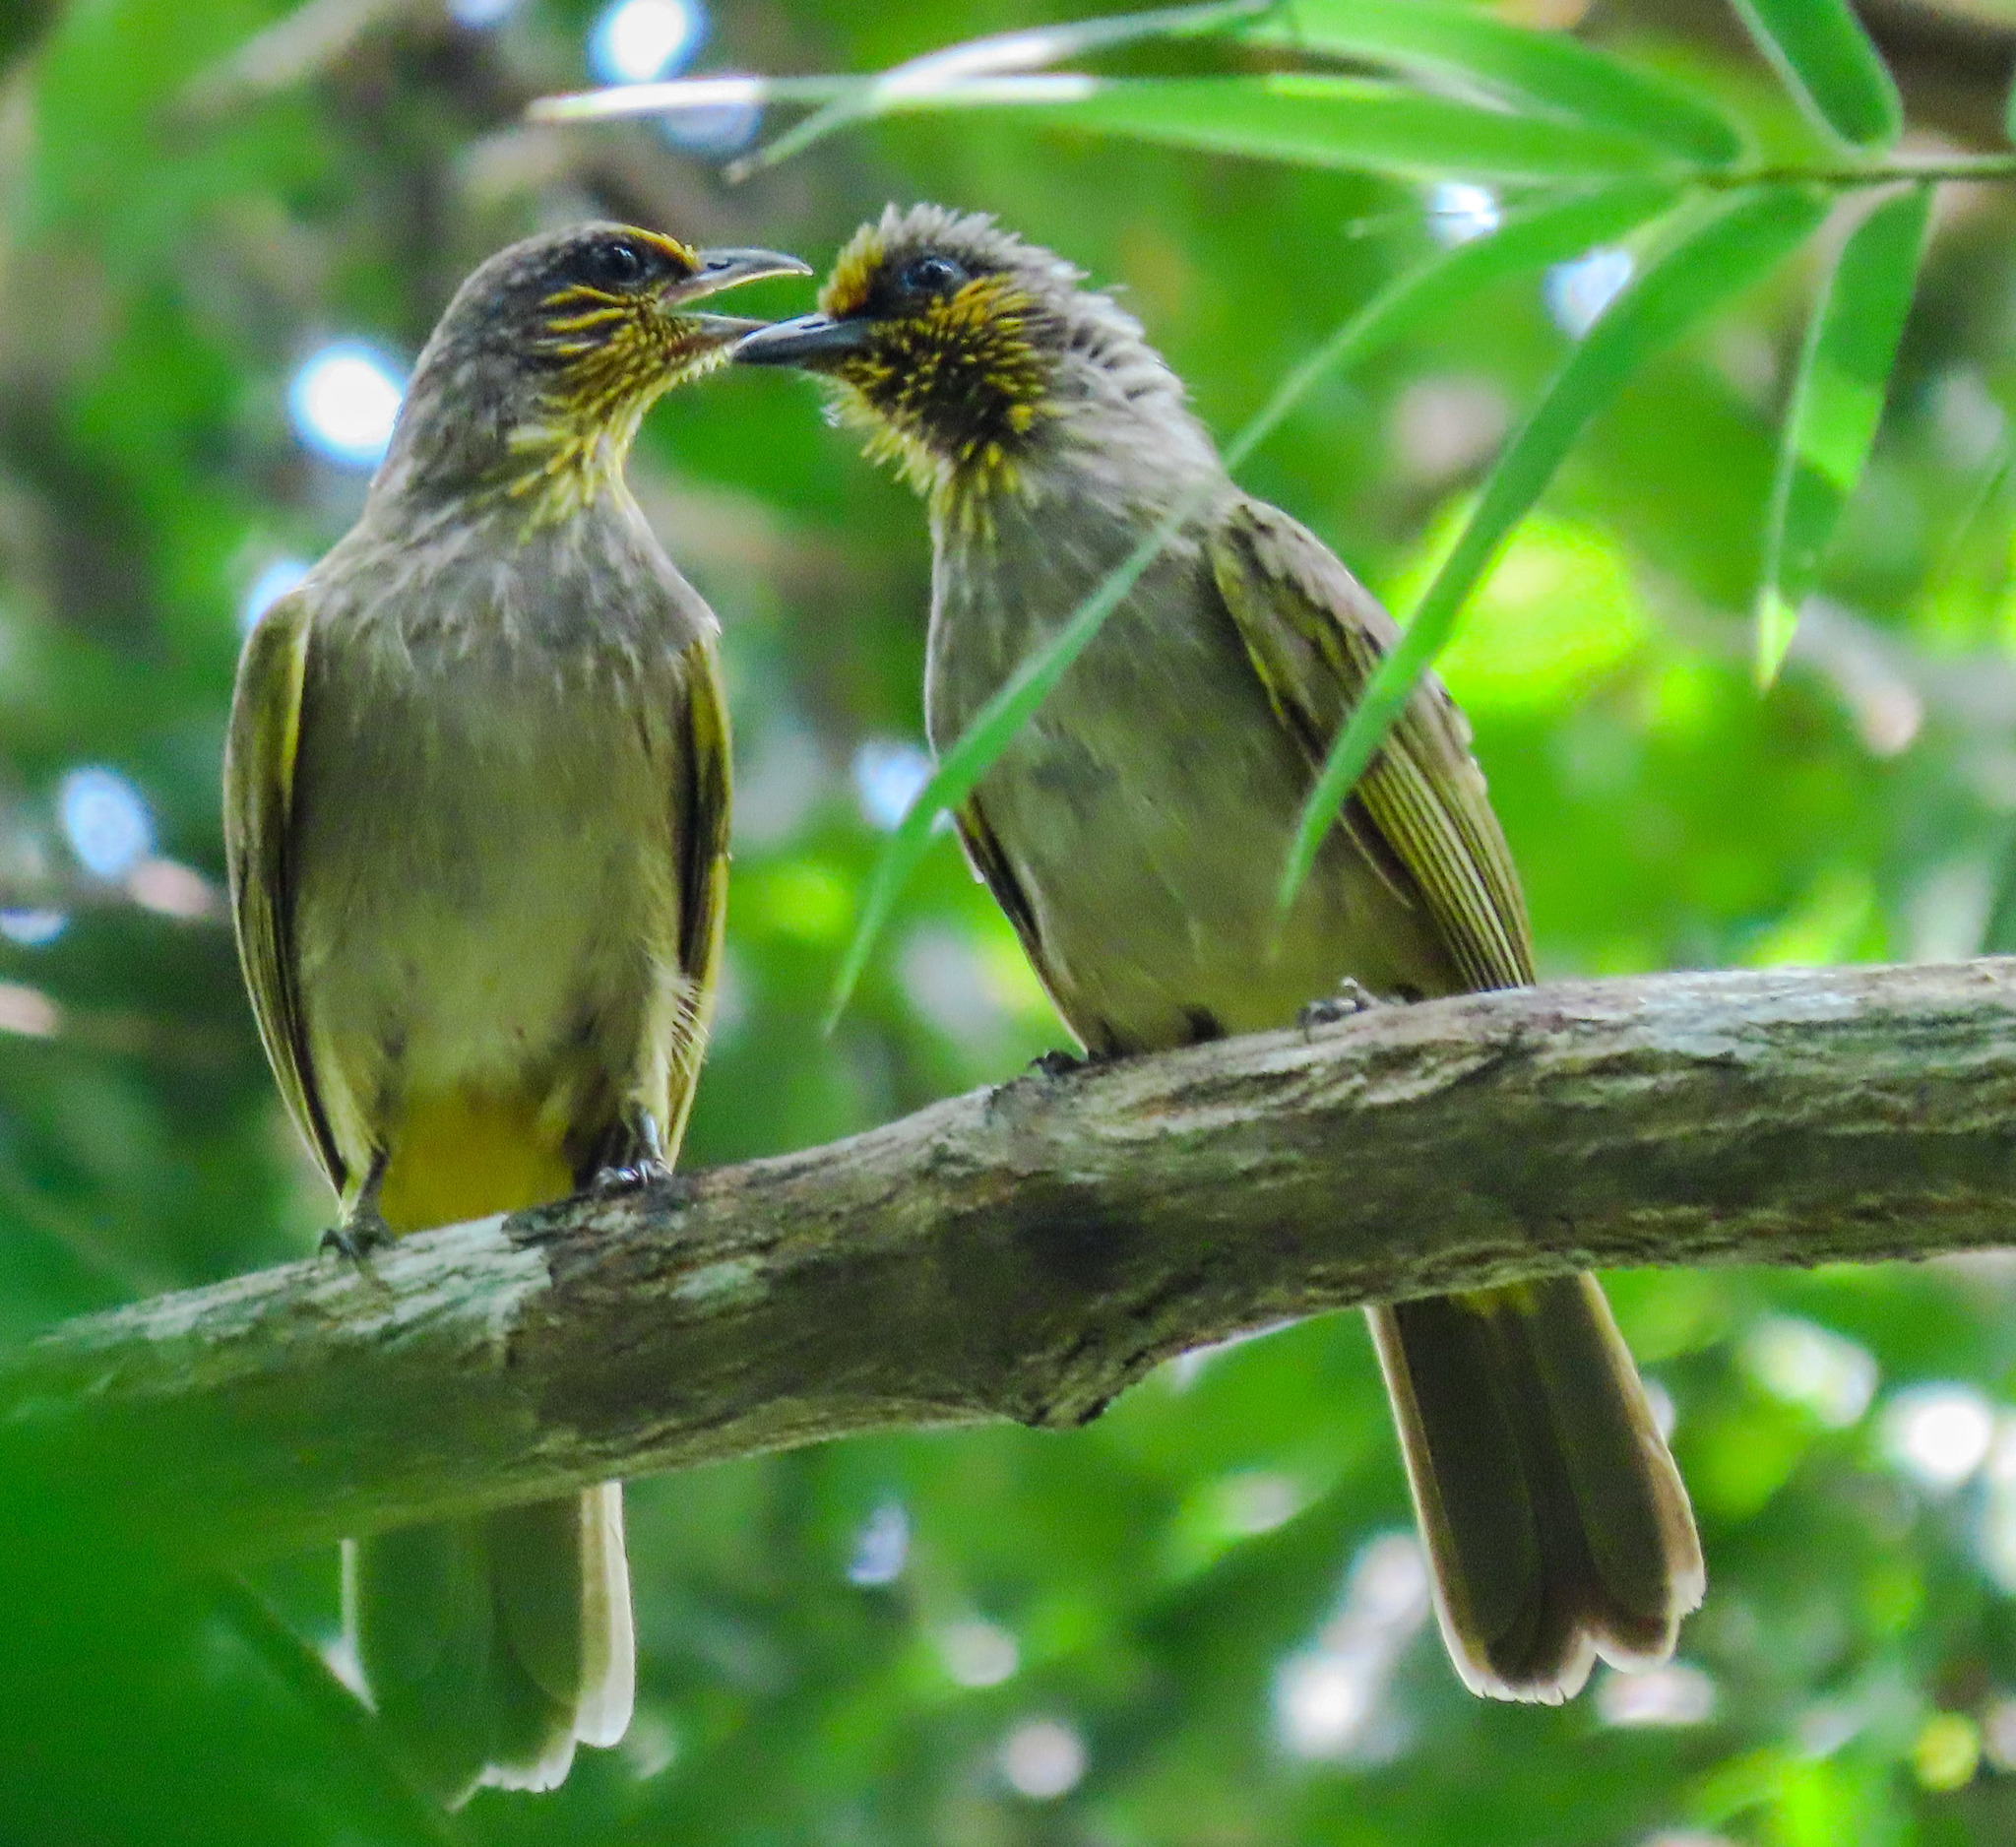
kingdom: Animalia
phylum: Chordata
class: Aves
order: Passeriformes
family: Pycnonotidae
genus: Pycnonotus
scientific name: Pycnonotus finlaysoni
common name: Stripe-throated bulbul
